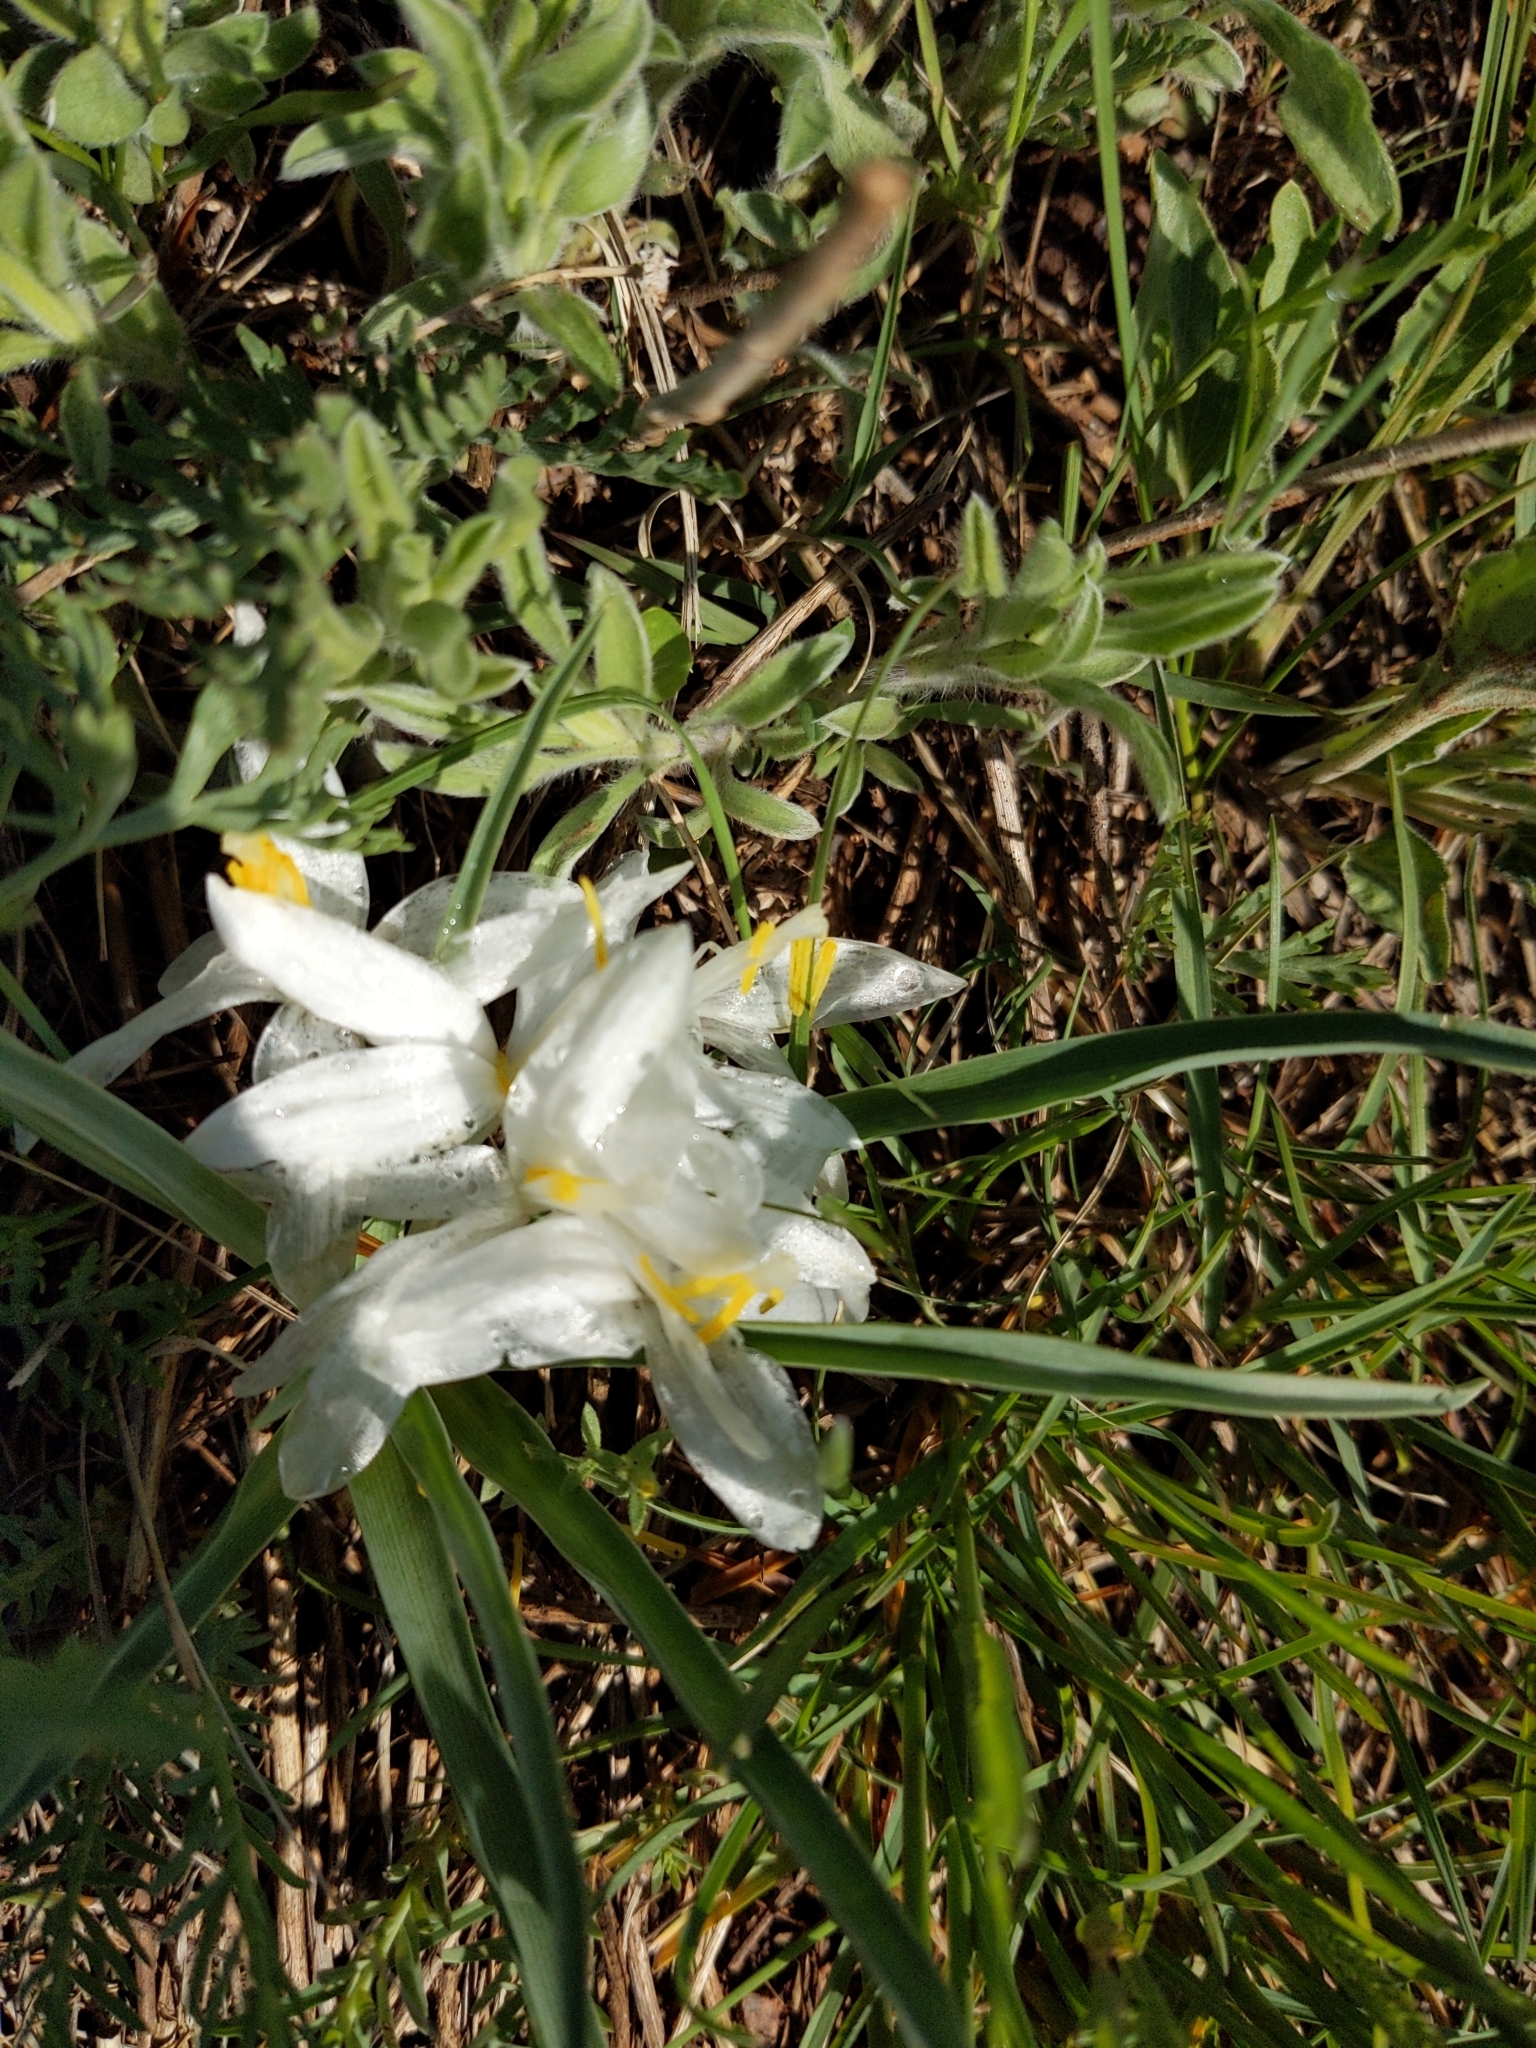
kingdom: Plantae
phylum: Tracheophyta
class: Liliopsida
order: Asparagales
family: Asparagaceae
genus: Leucocrinum
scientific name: Leucocrinum montanum
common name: Mountain-lily
